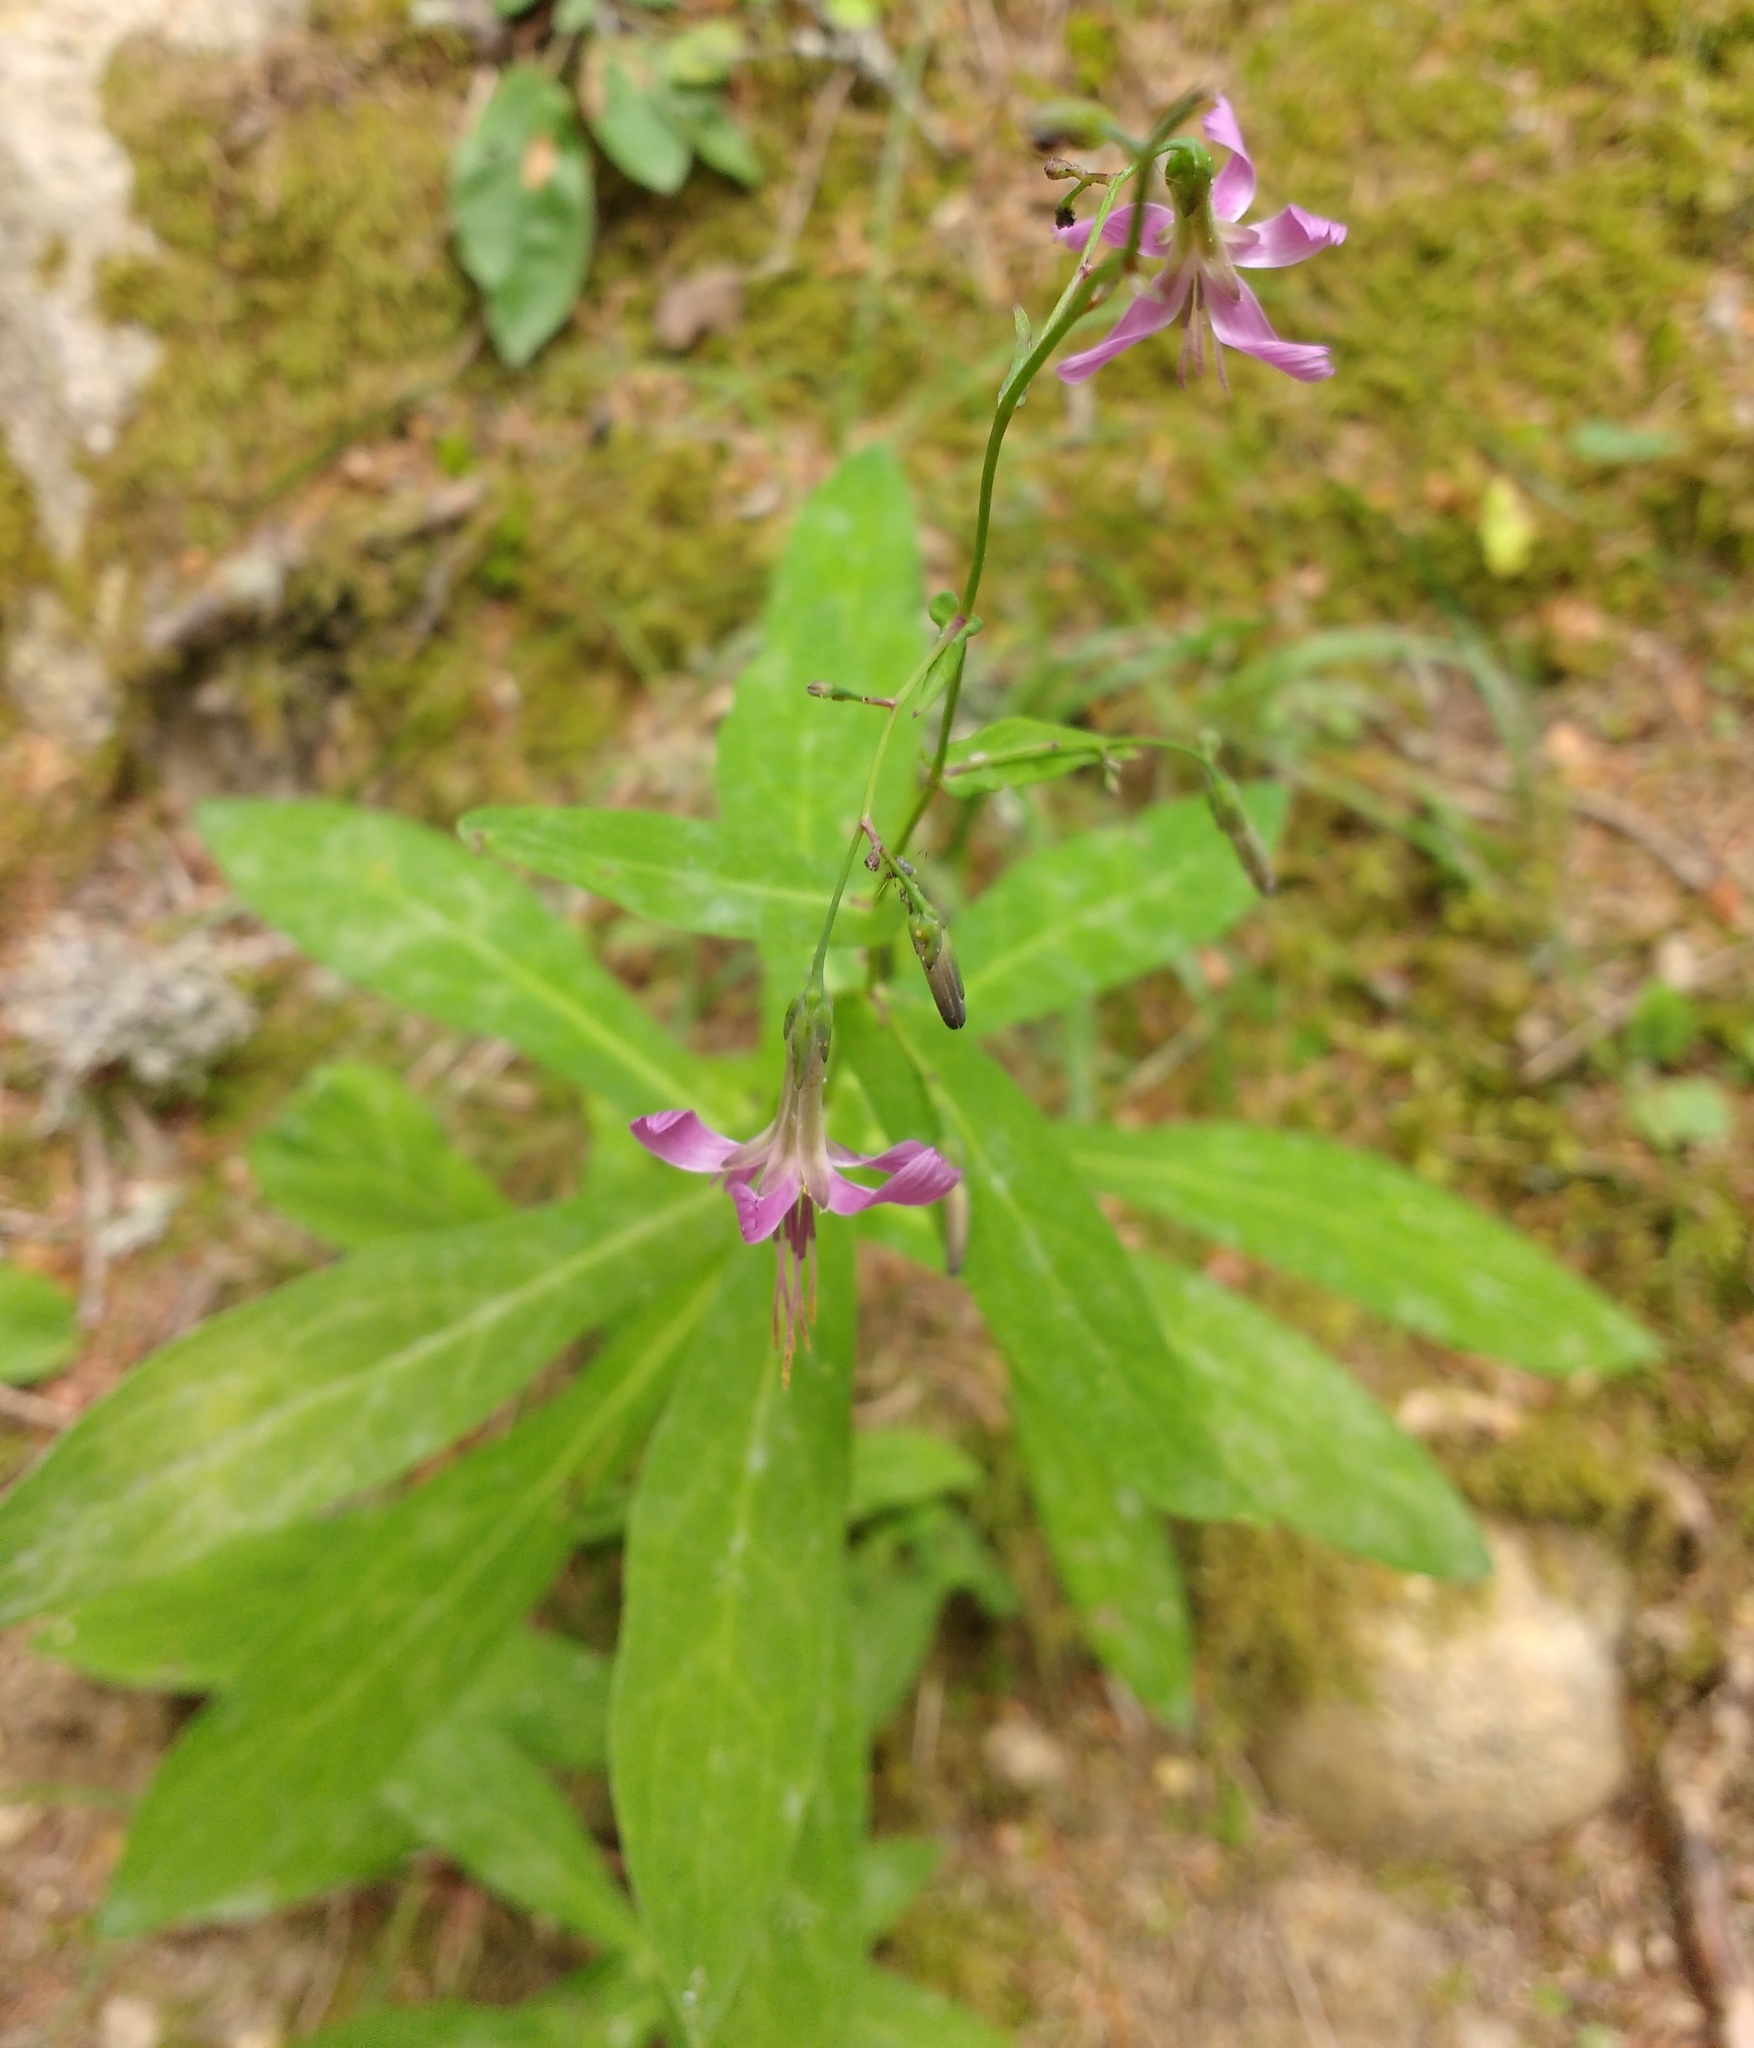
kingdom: Plantae
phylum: Tracheophyta
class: Magnoliopsida
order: Asterales
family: Asteraceae
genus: Prenanthes
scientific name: Prenanthes purpurea
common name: Purple lettuce
